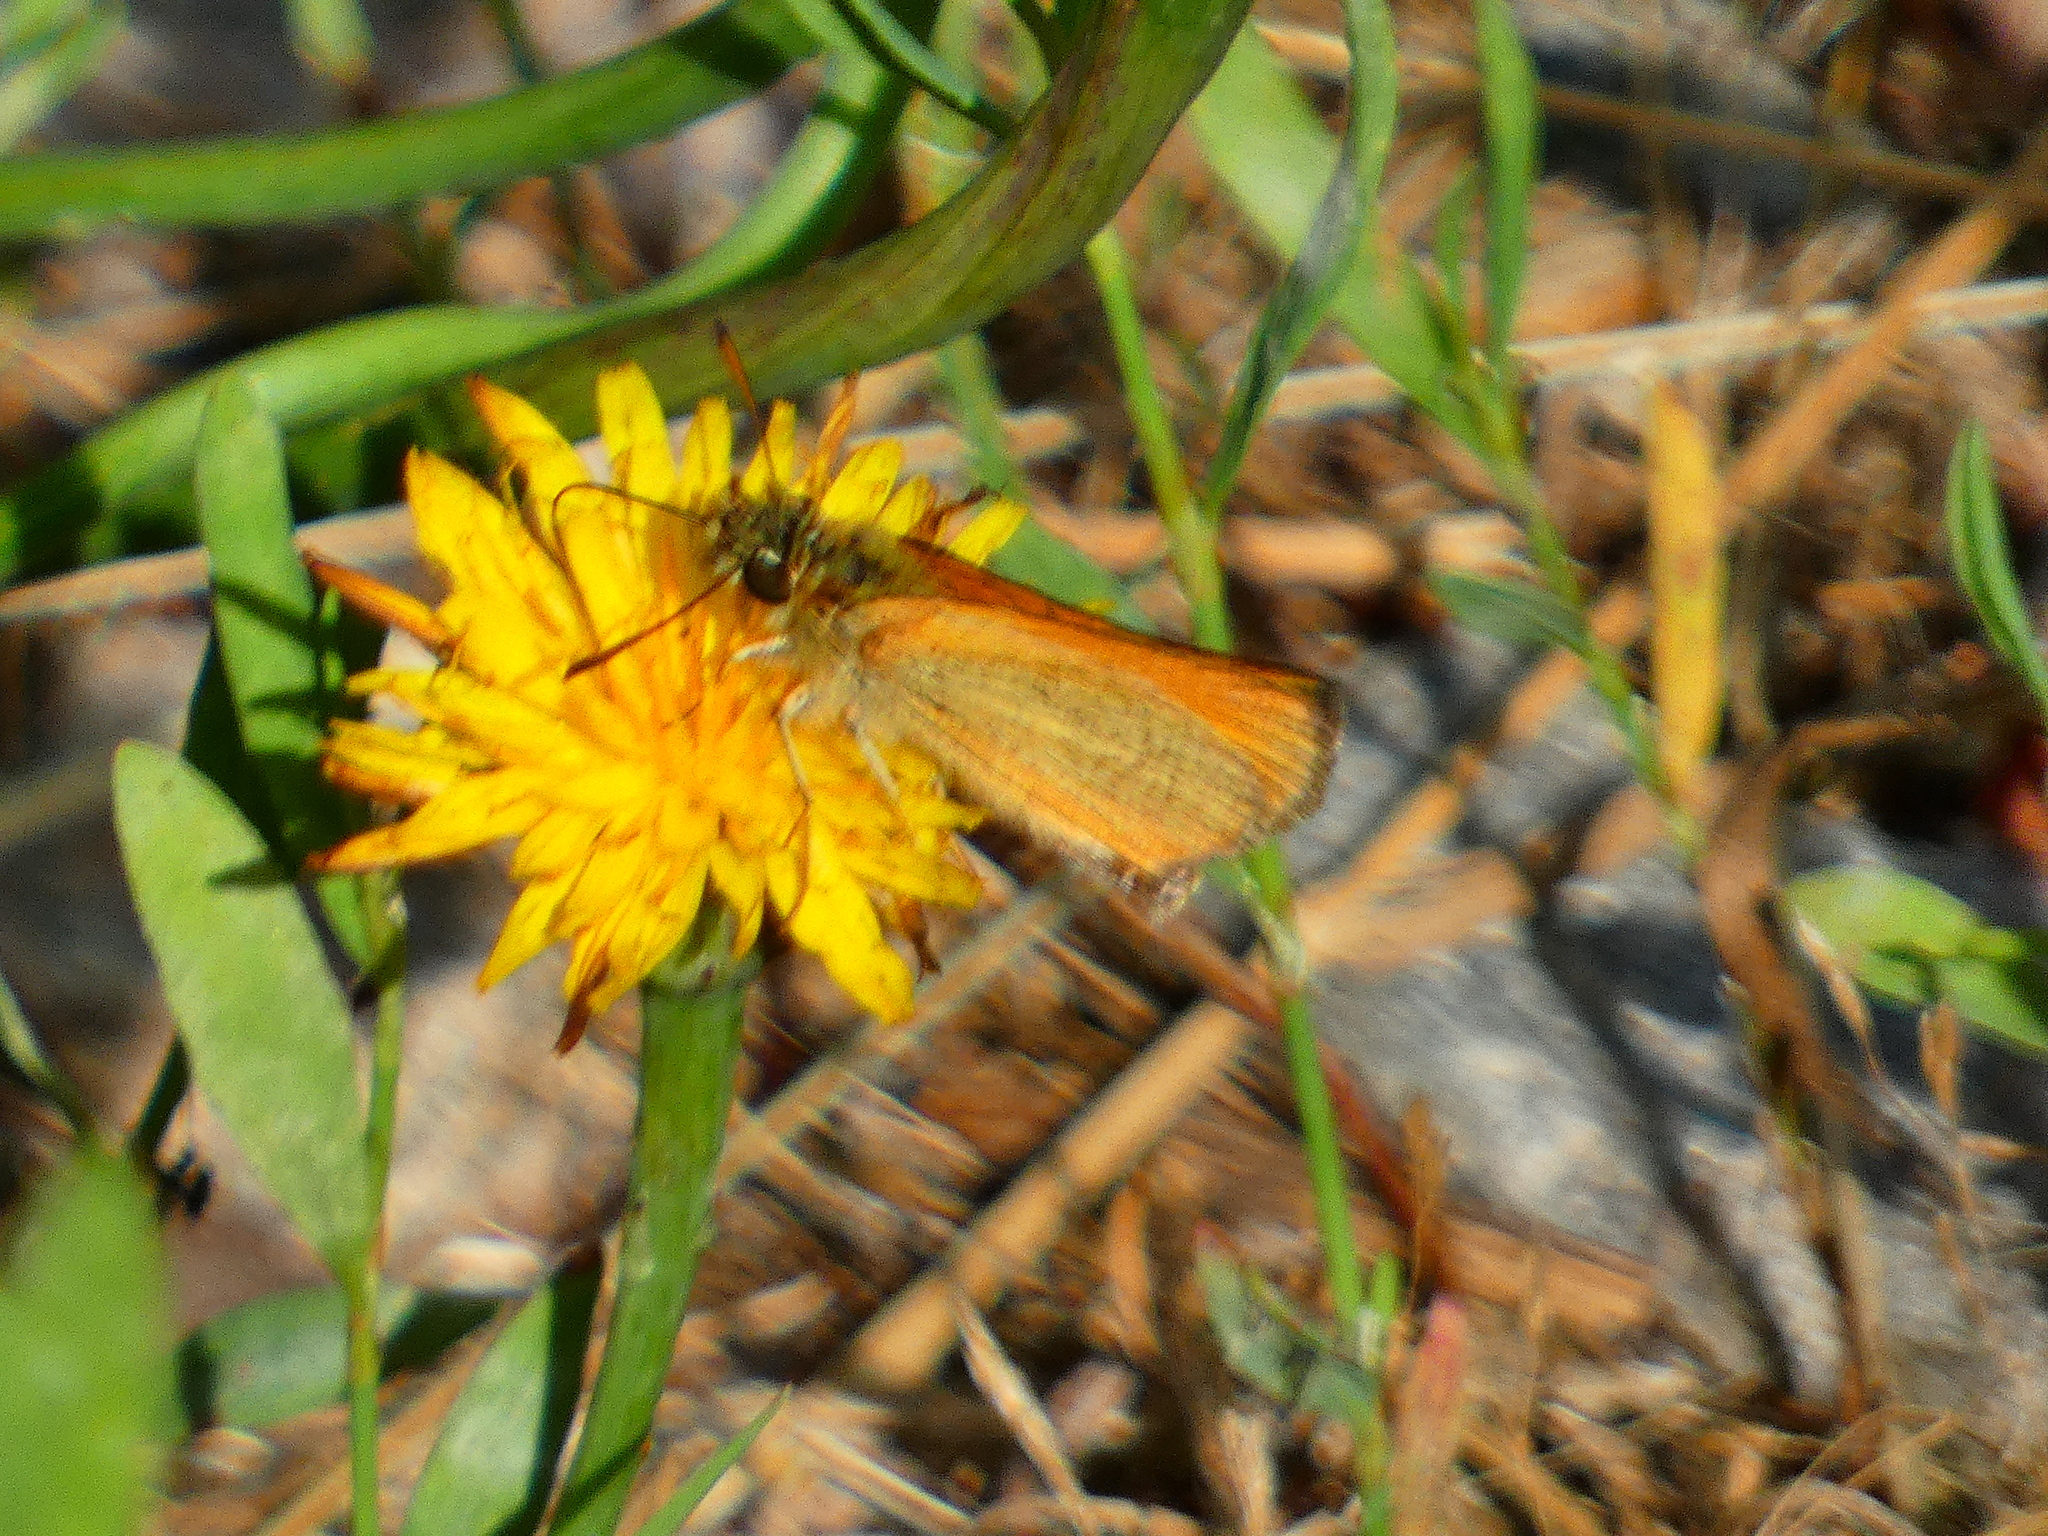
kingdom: Animalia
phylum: Arthropoda
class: Insecta
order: Lepidoptera
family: Hesperiidae
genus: Thymelicus
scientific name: Thymelicus lineola
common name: Essex skipper
